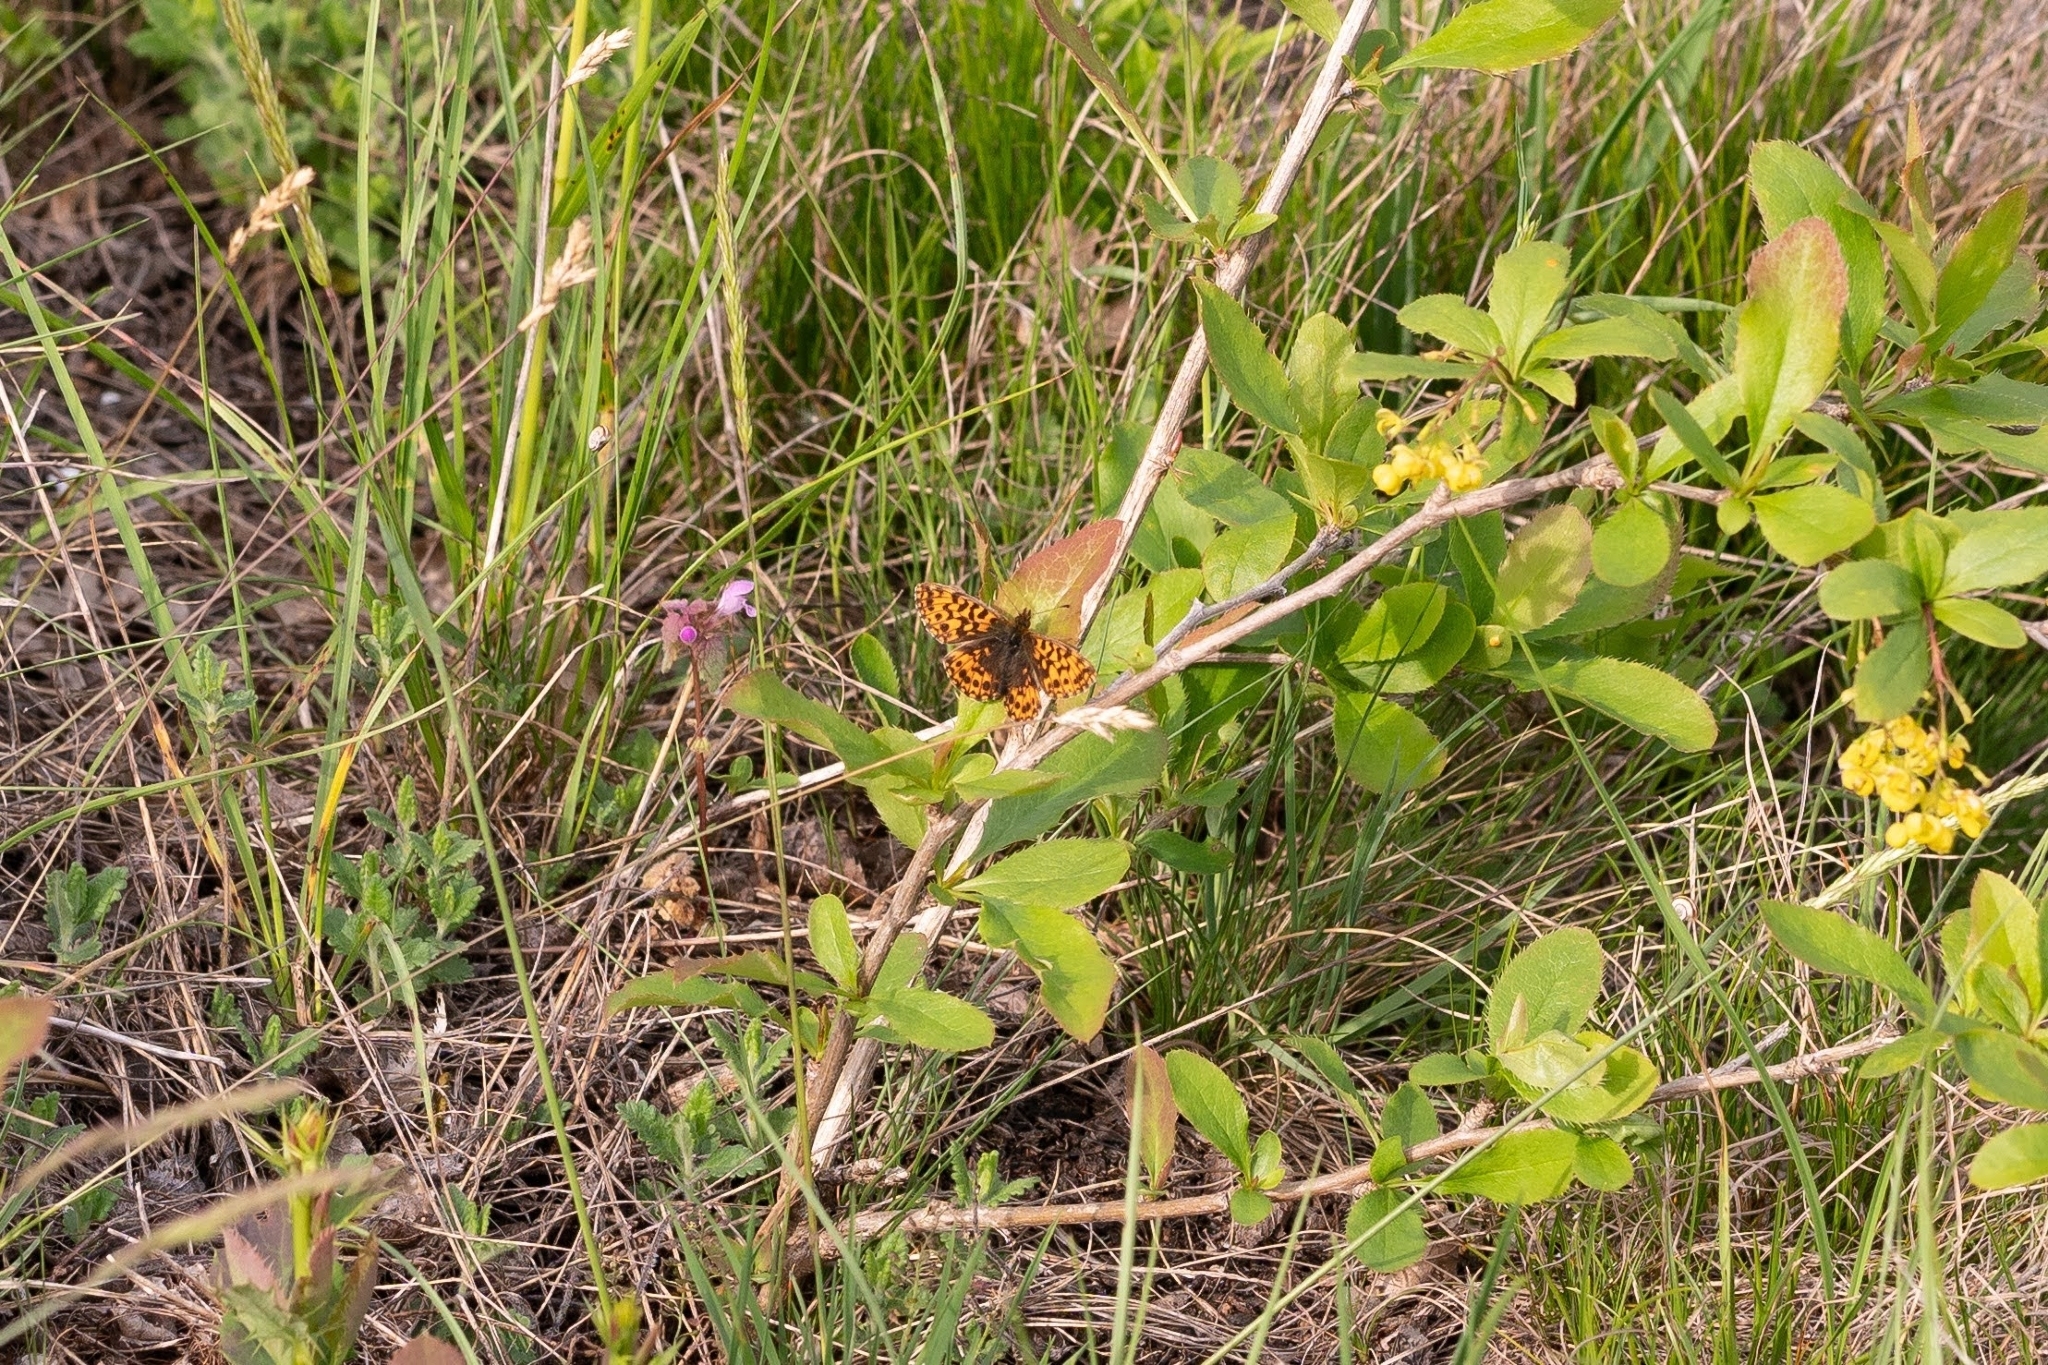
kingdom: Animalia
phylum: Arthropoda
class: Insecta
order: Lepidoptera
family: Nymphalidae
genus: Boloria
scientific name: Boloria dia
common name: Weaver's fritillary
